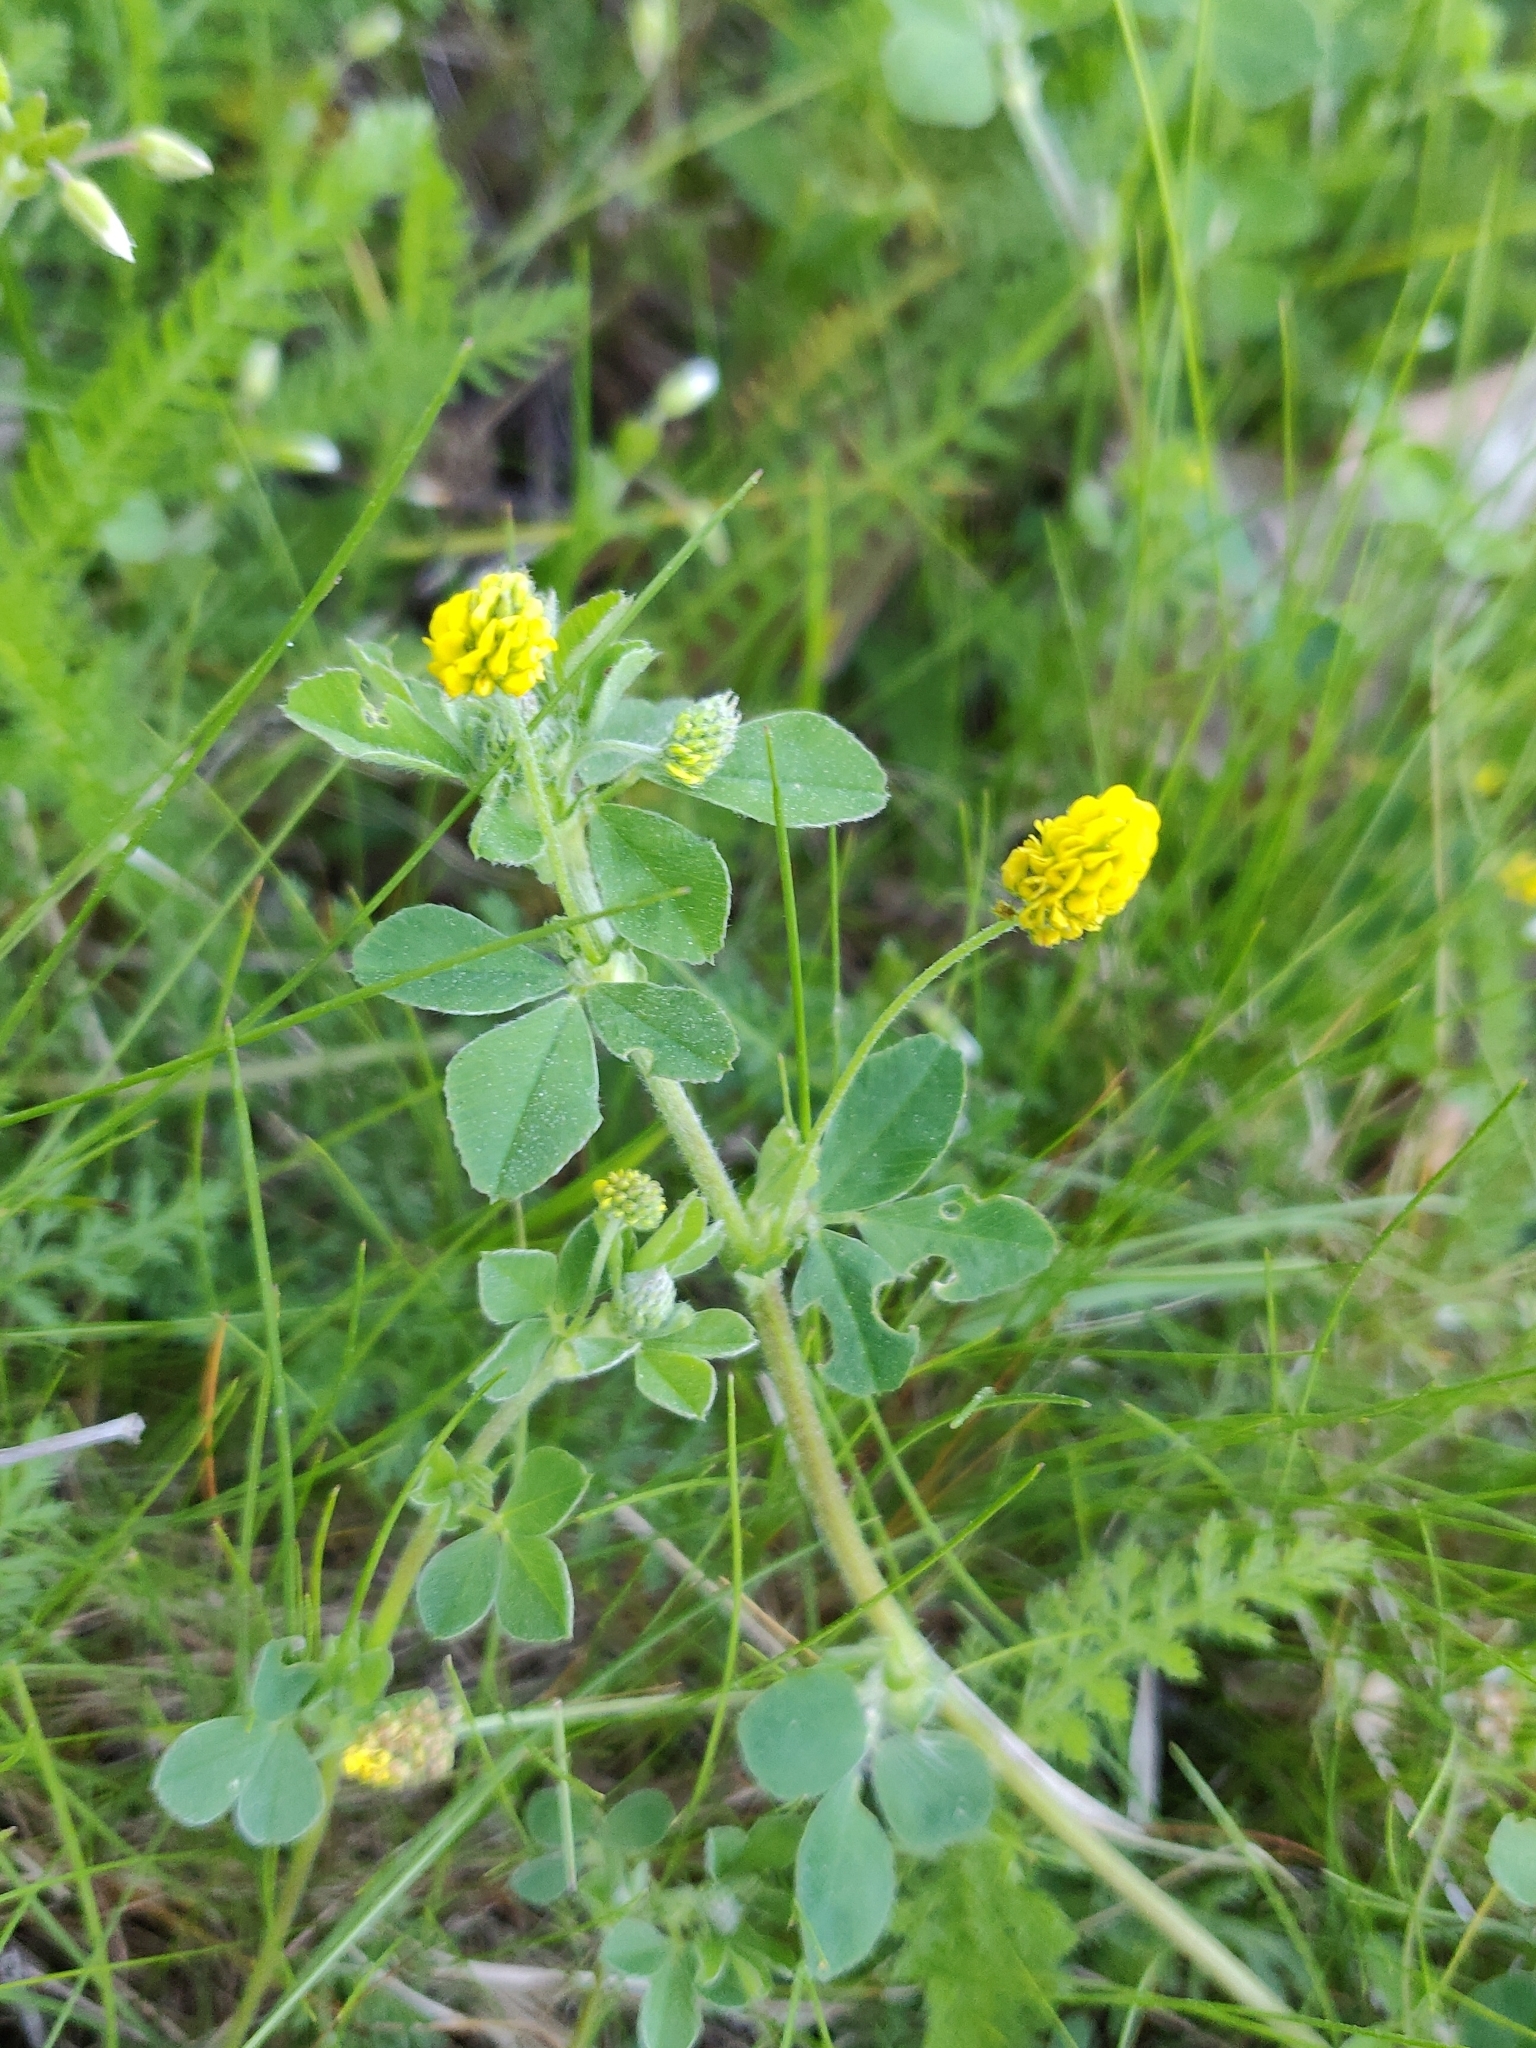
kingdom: Plantae
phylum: Tracheophyta
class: Magnoliopsida
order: Fabales
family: Fabaceae
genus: Medicago
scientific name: Medicago lupulina
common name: Black medick
